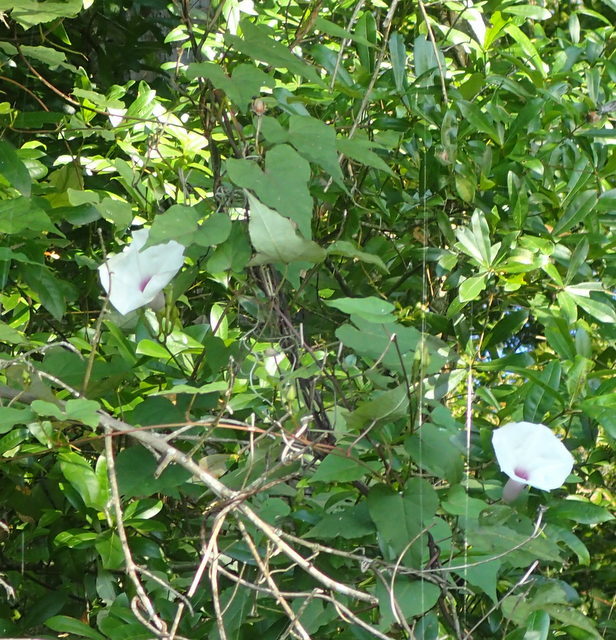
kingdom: Plantae
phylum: Tracheophyta
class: Magnoliopsida
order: Solanales
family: Convolvulaceae
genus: Ipomoea
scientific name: Ipomoea pandurata
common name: Man-of-the-earth
